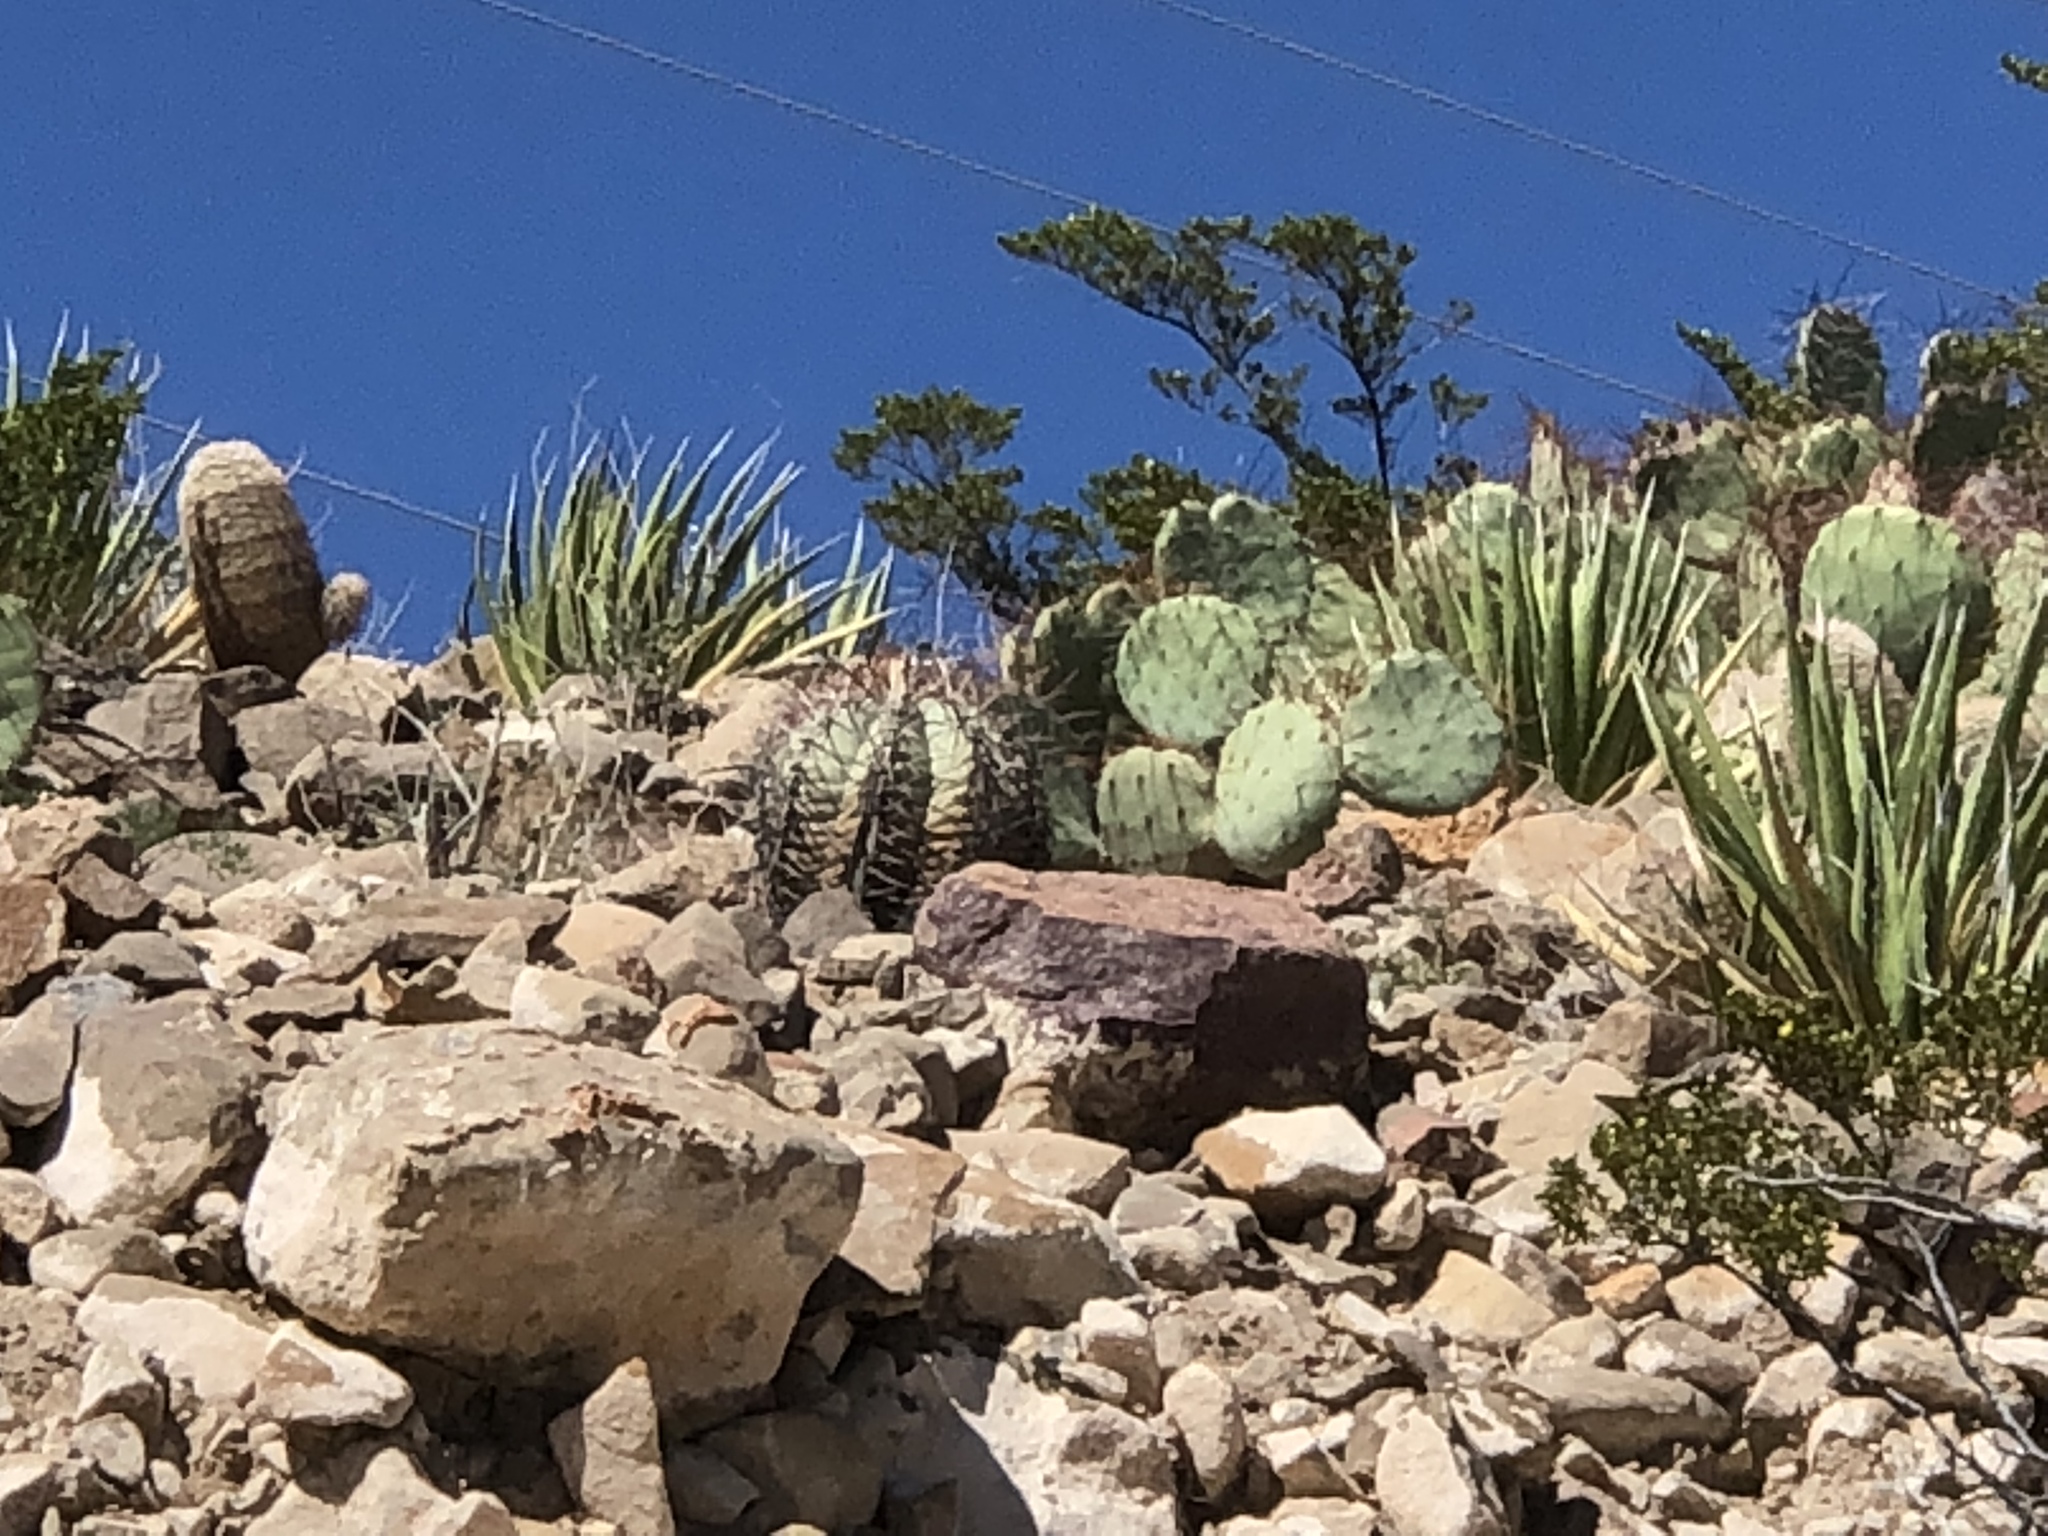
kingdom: Plantae
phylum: Tracheophyta
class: Magnoliopsida
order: Caryophyllales
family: Cactaceae
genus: Echinocactus
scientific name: Echinocactus horizonthalonius
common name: Devilshead
